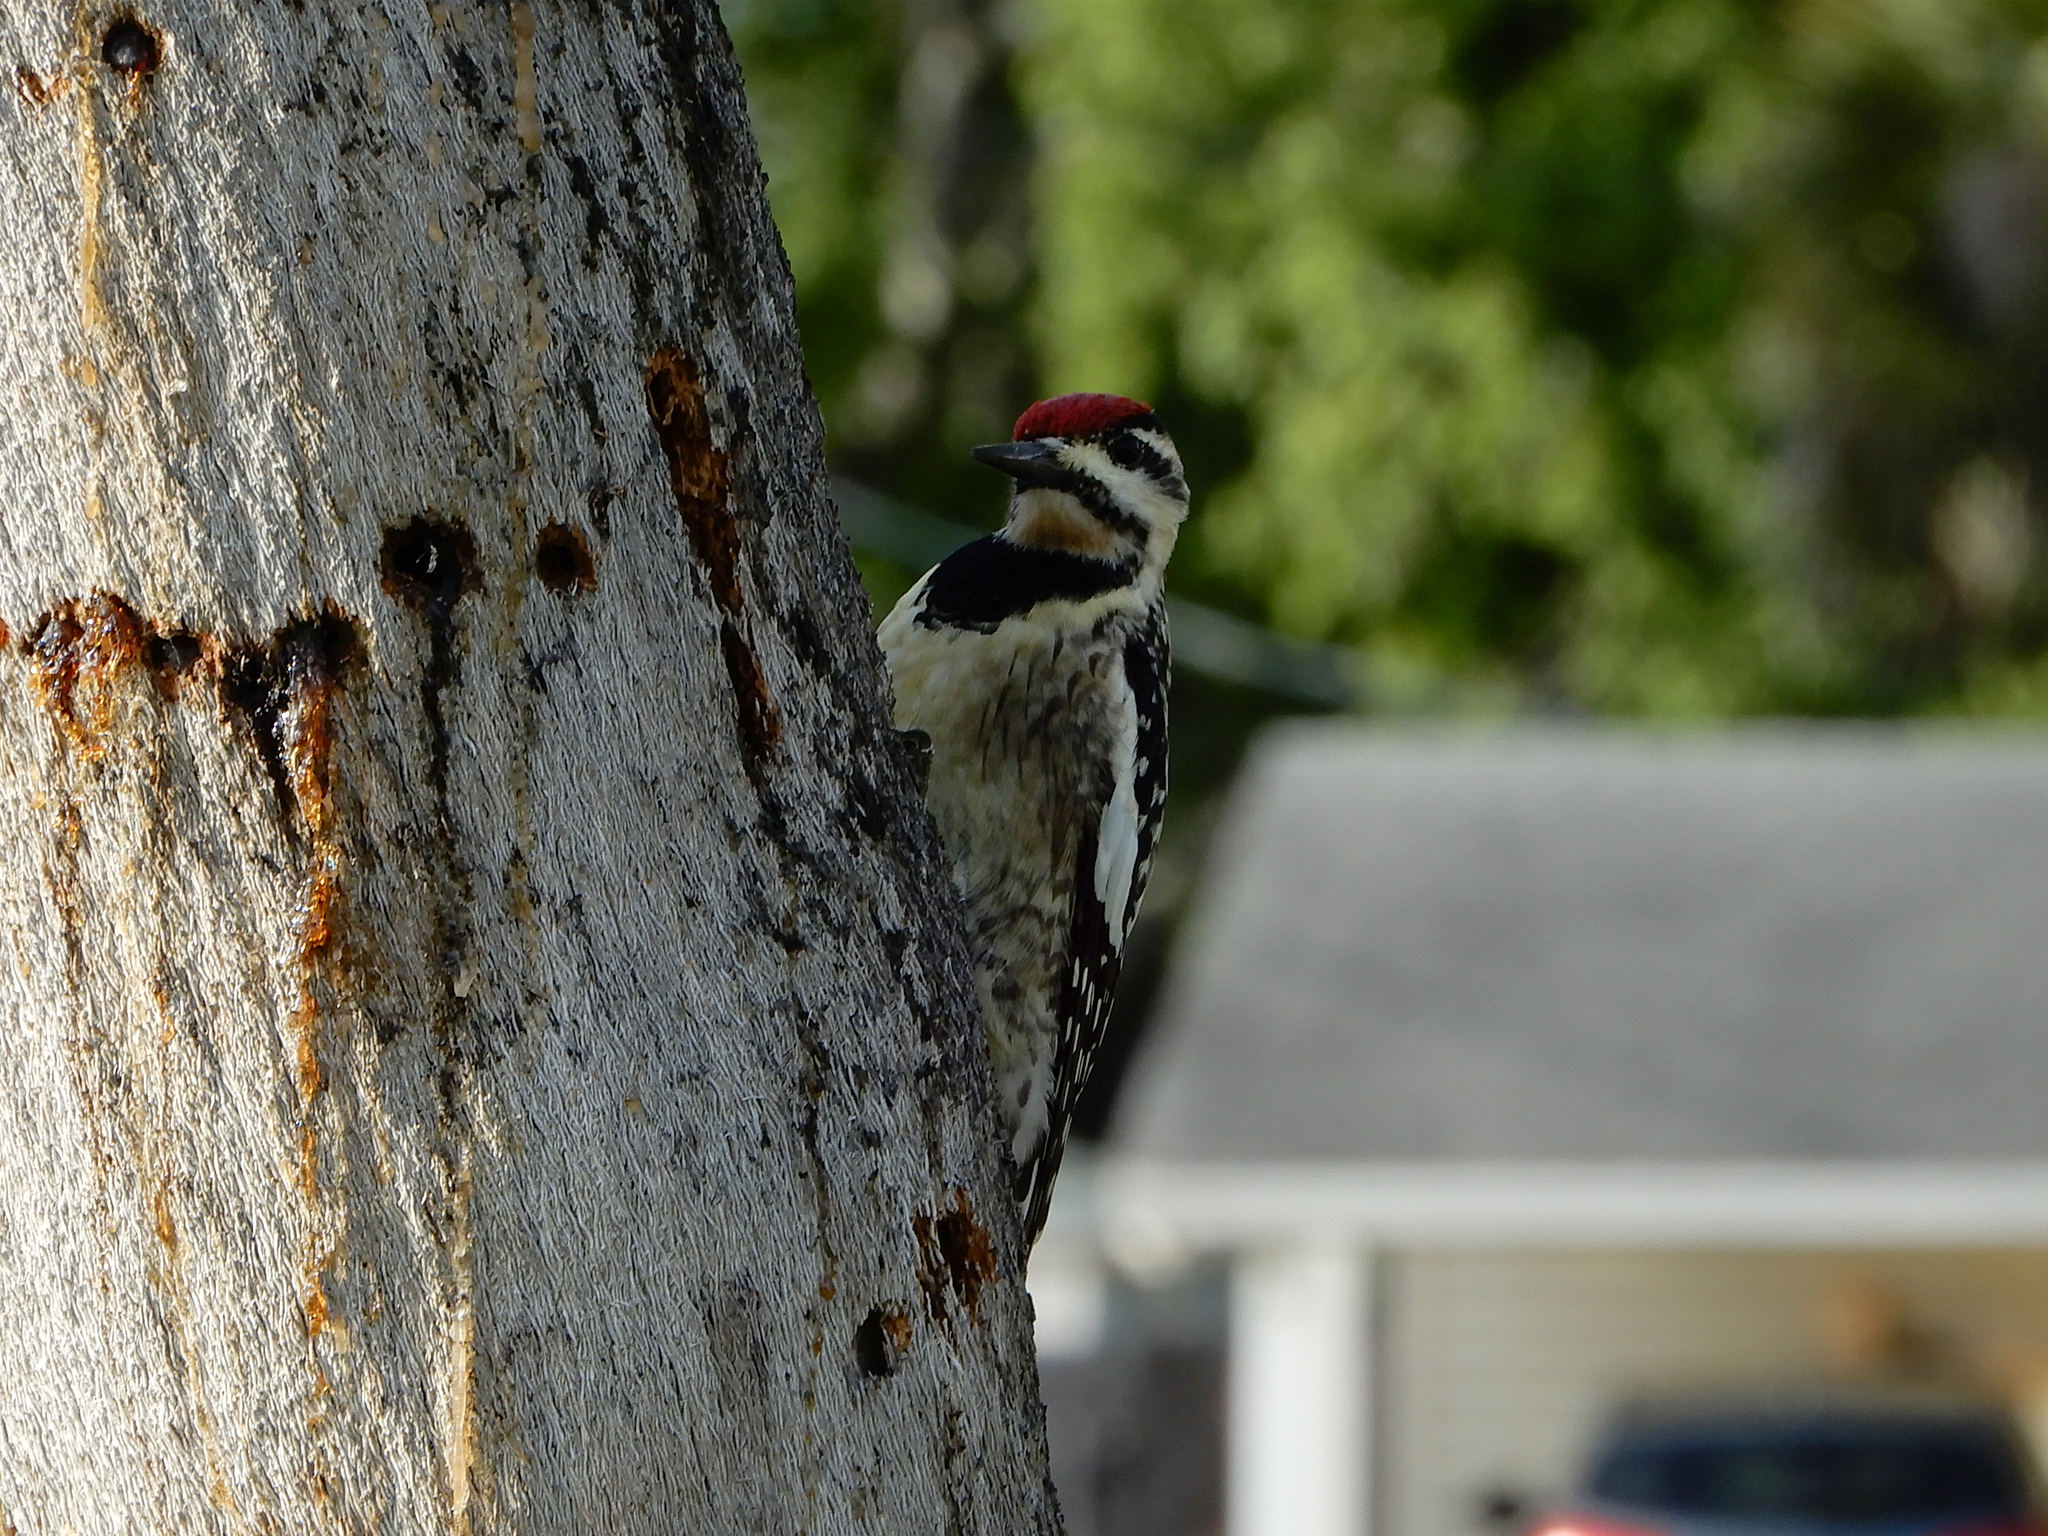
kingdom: Animalia
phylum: Chordata
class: Aves
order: Piciformes
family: Picidae
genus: Sphyrapicus
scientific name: Sphyrapicus varius
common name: Yellow-bellied sapsucker
